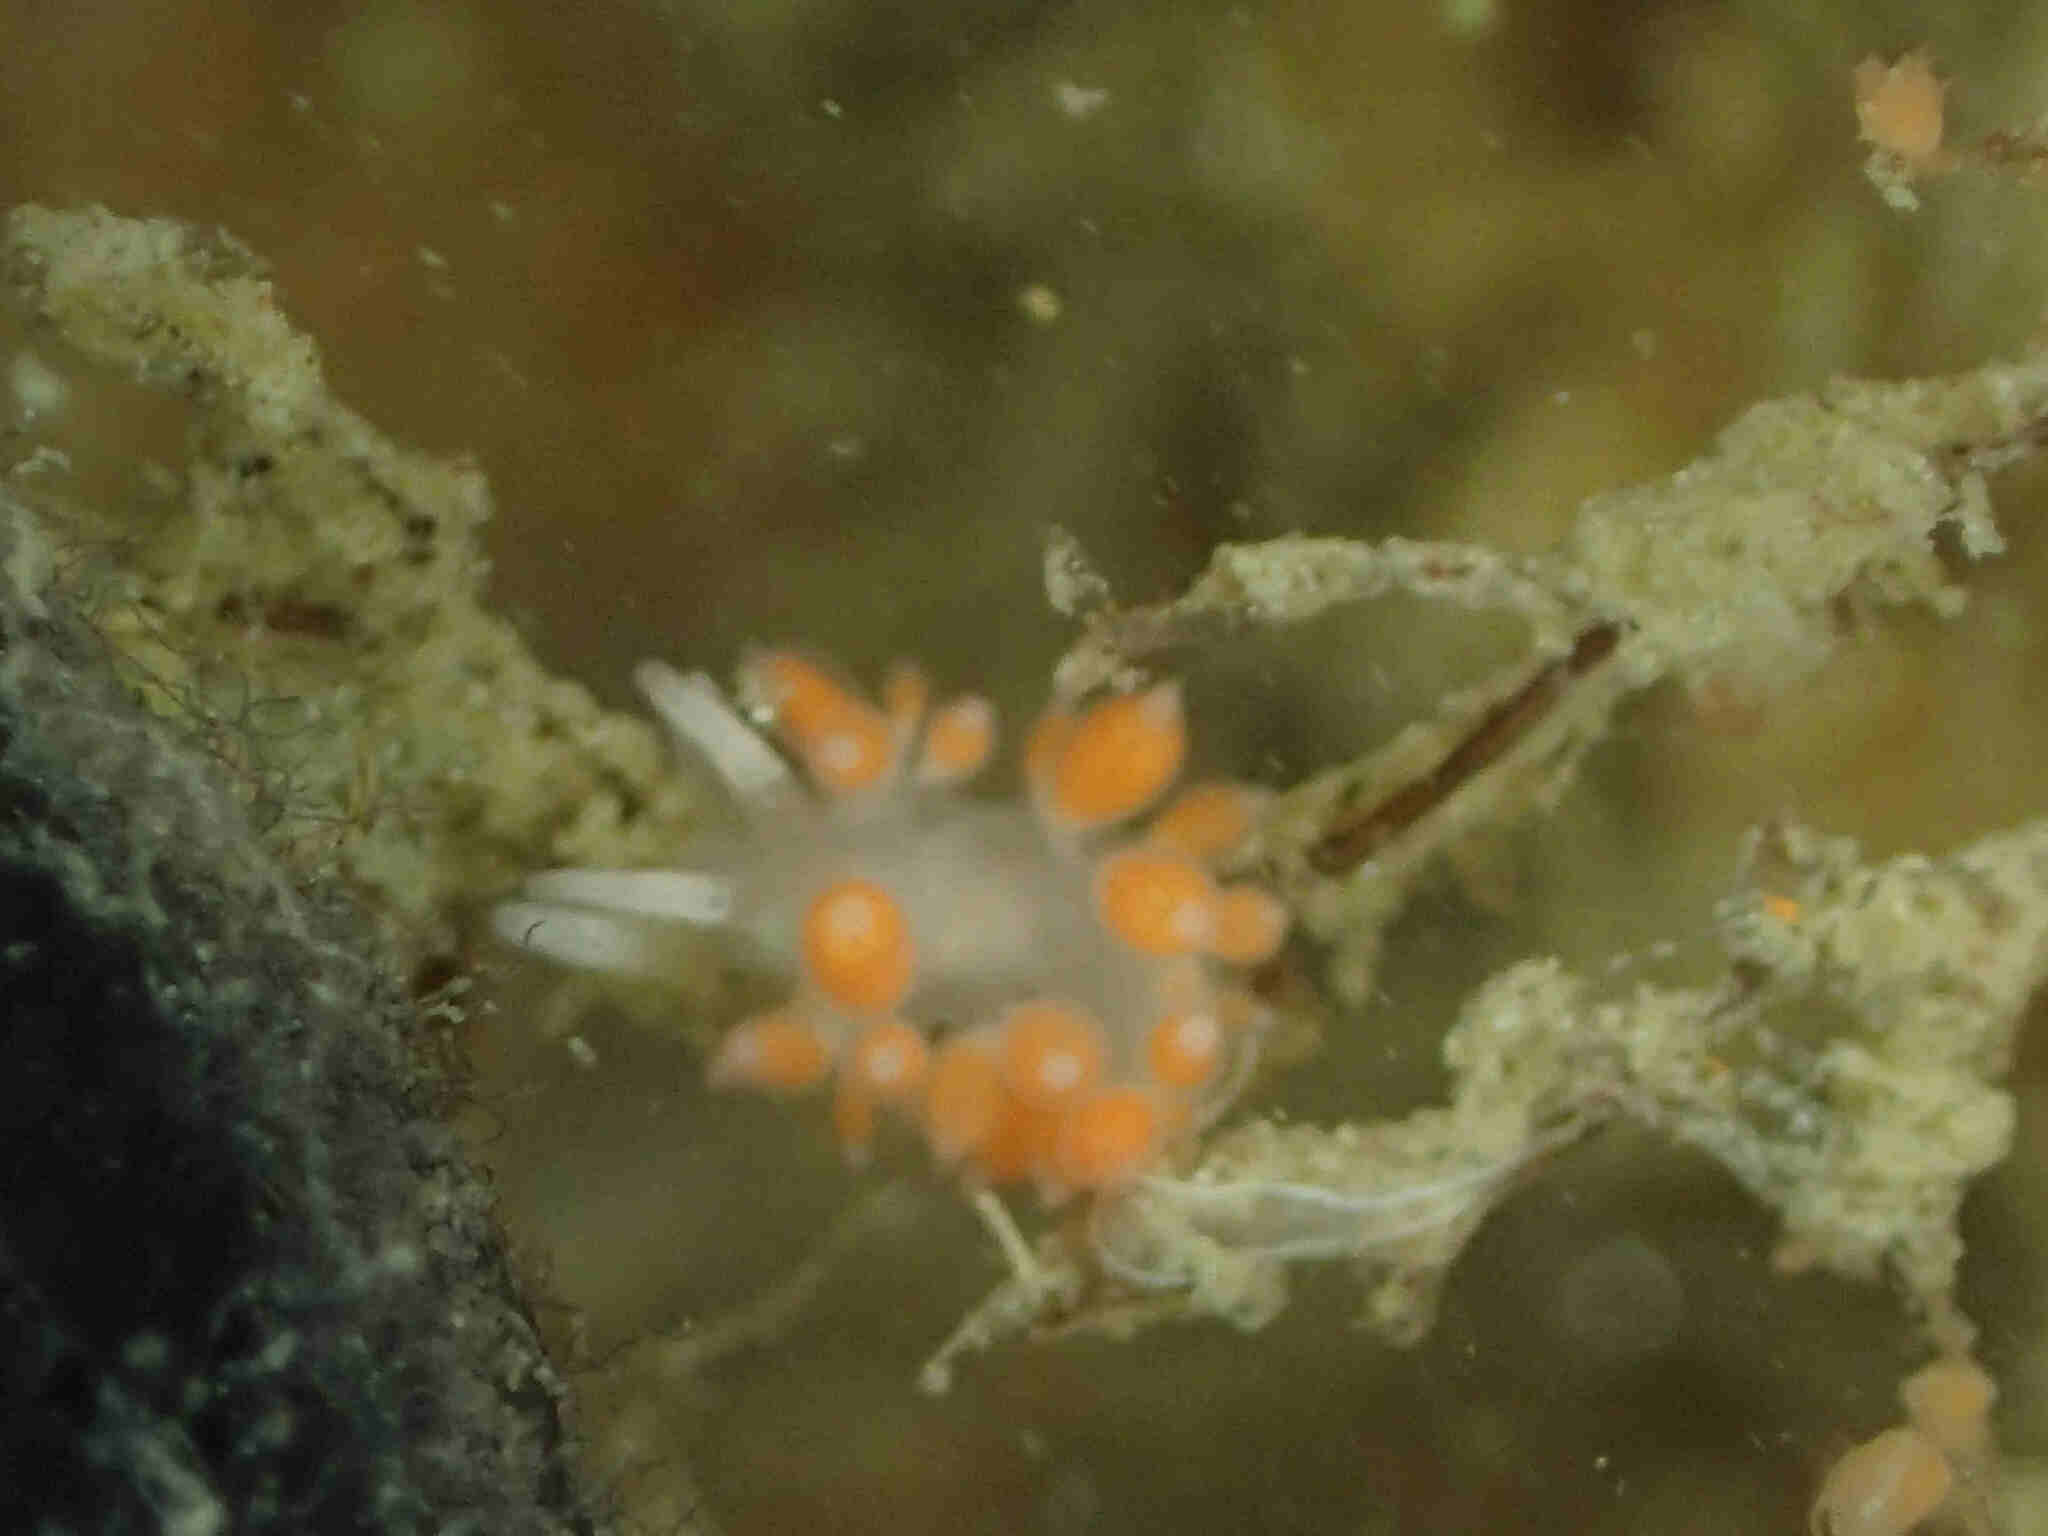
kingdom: Animalia
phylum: Mollusca
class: Gastropoda
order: Nudibranchia
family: Flabellinidae
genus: Coryphellina
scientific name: Coryphellina albomarginata
